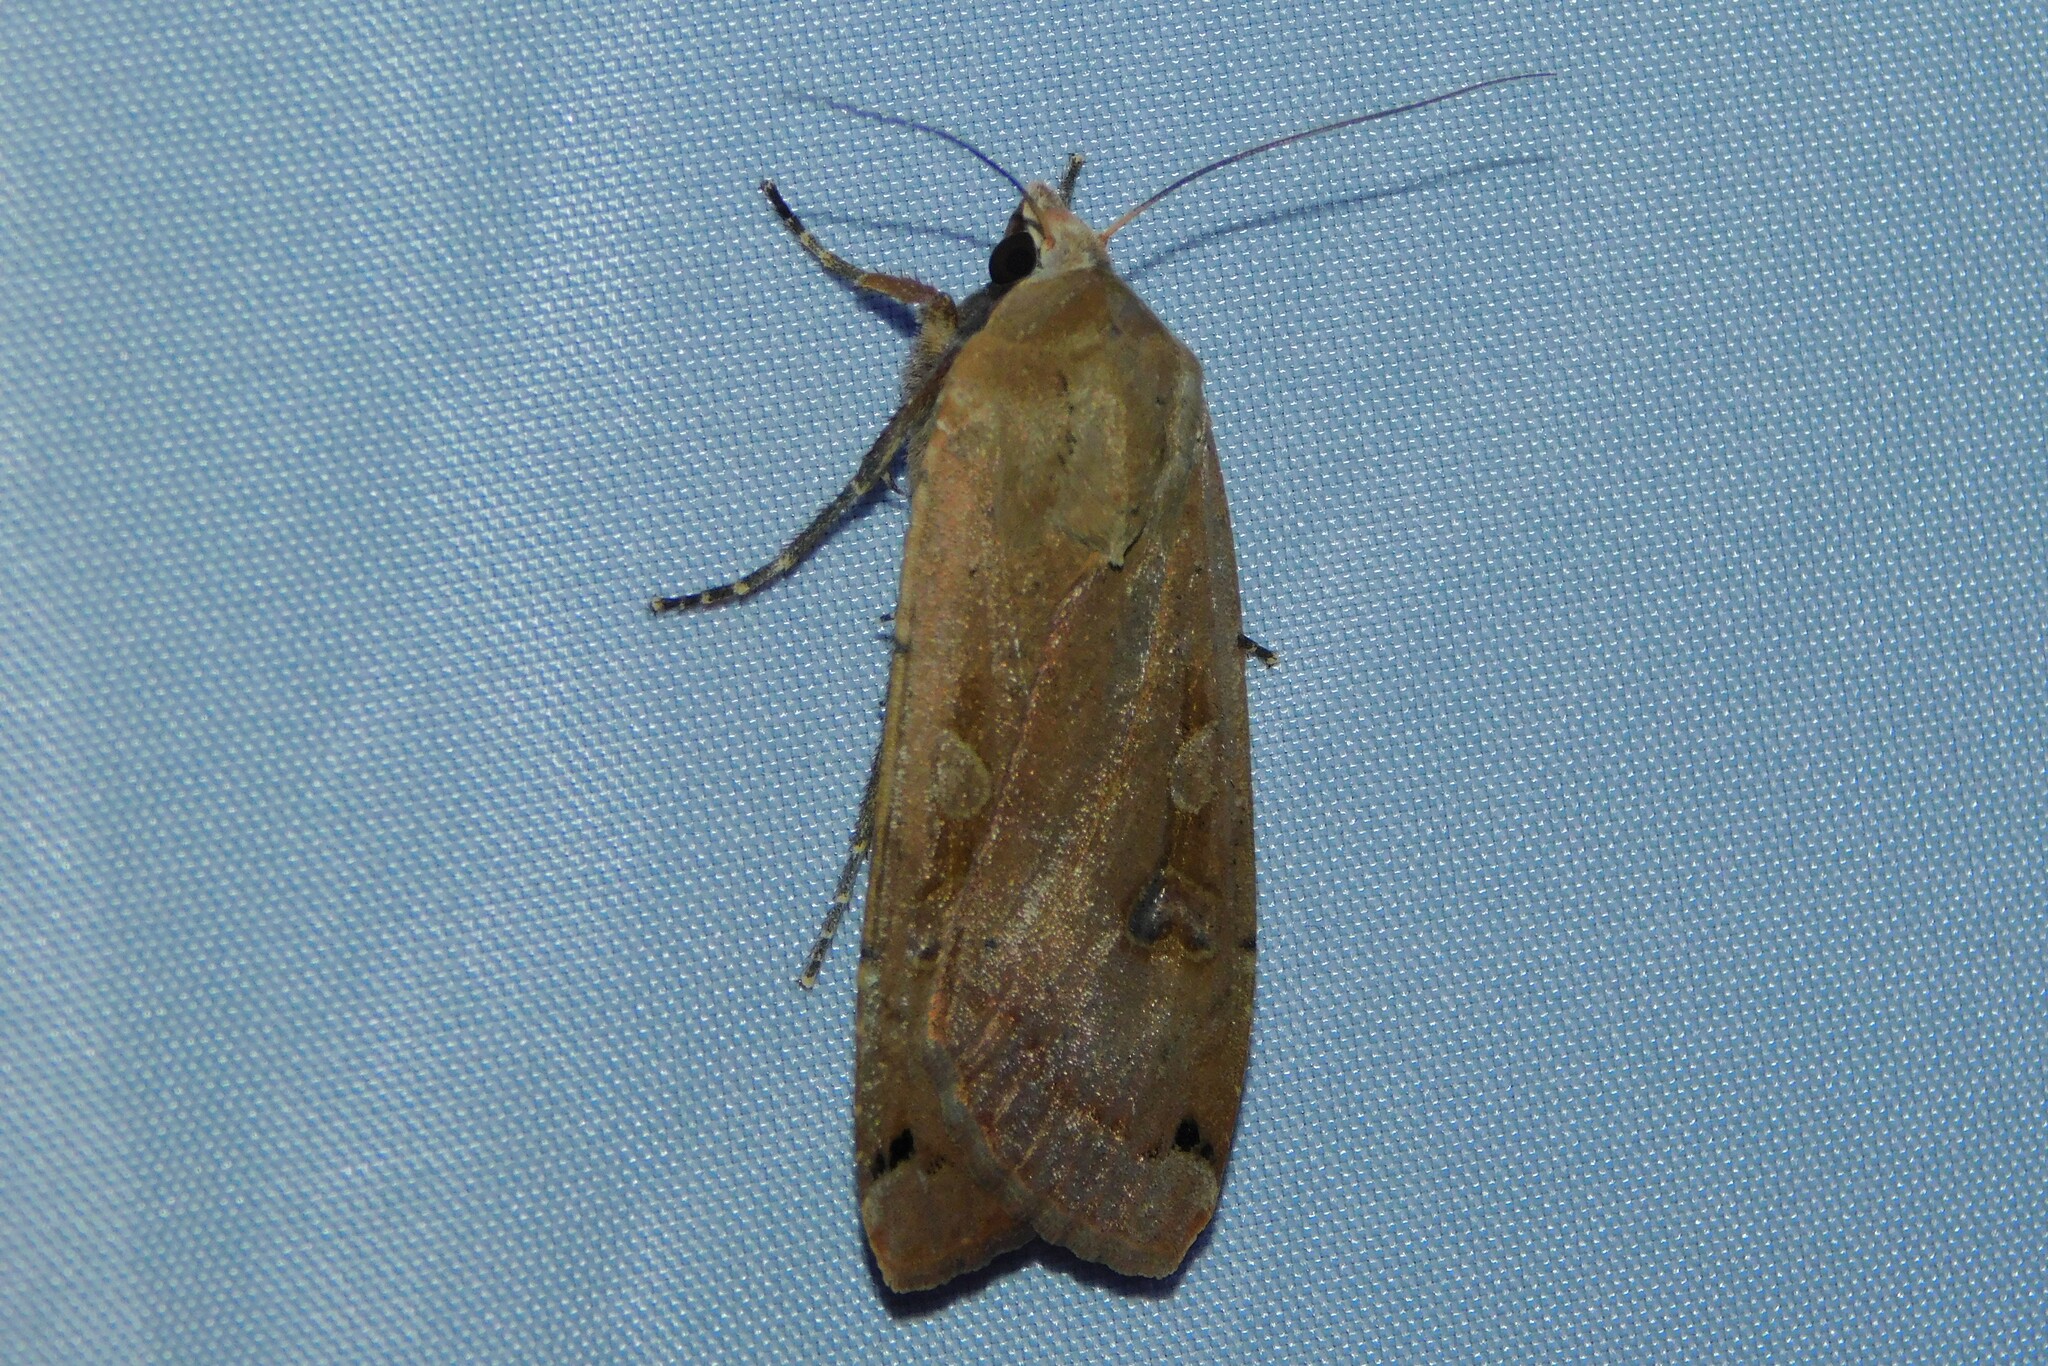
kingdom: Animalia
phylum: Arthropoda
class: Insecta
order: Lepidoptera
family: Noctuidae
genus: Noctua
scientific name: Noctua pronuba
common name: Large yellow underwing
